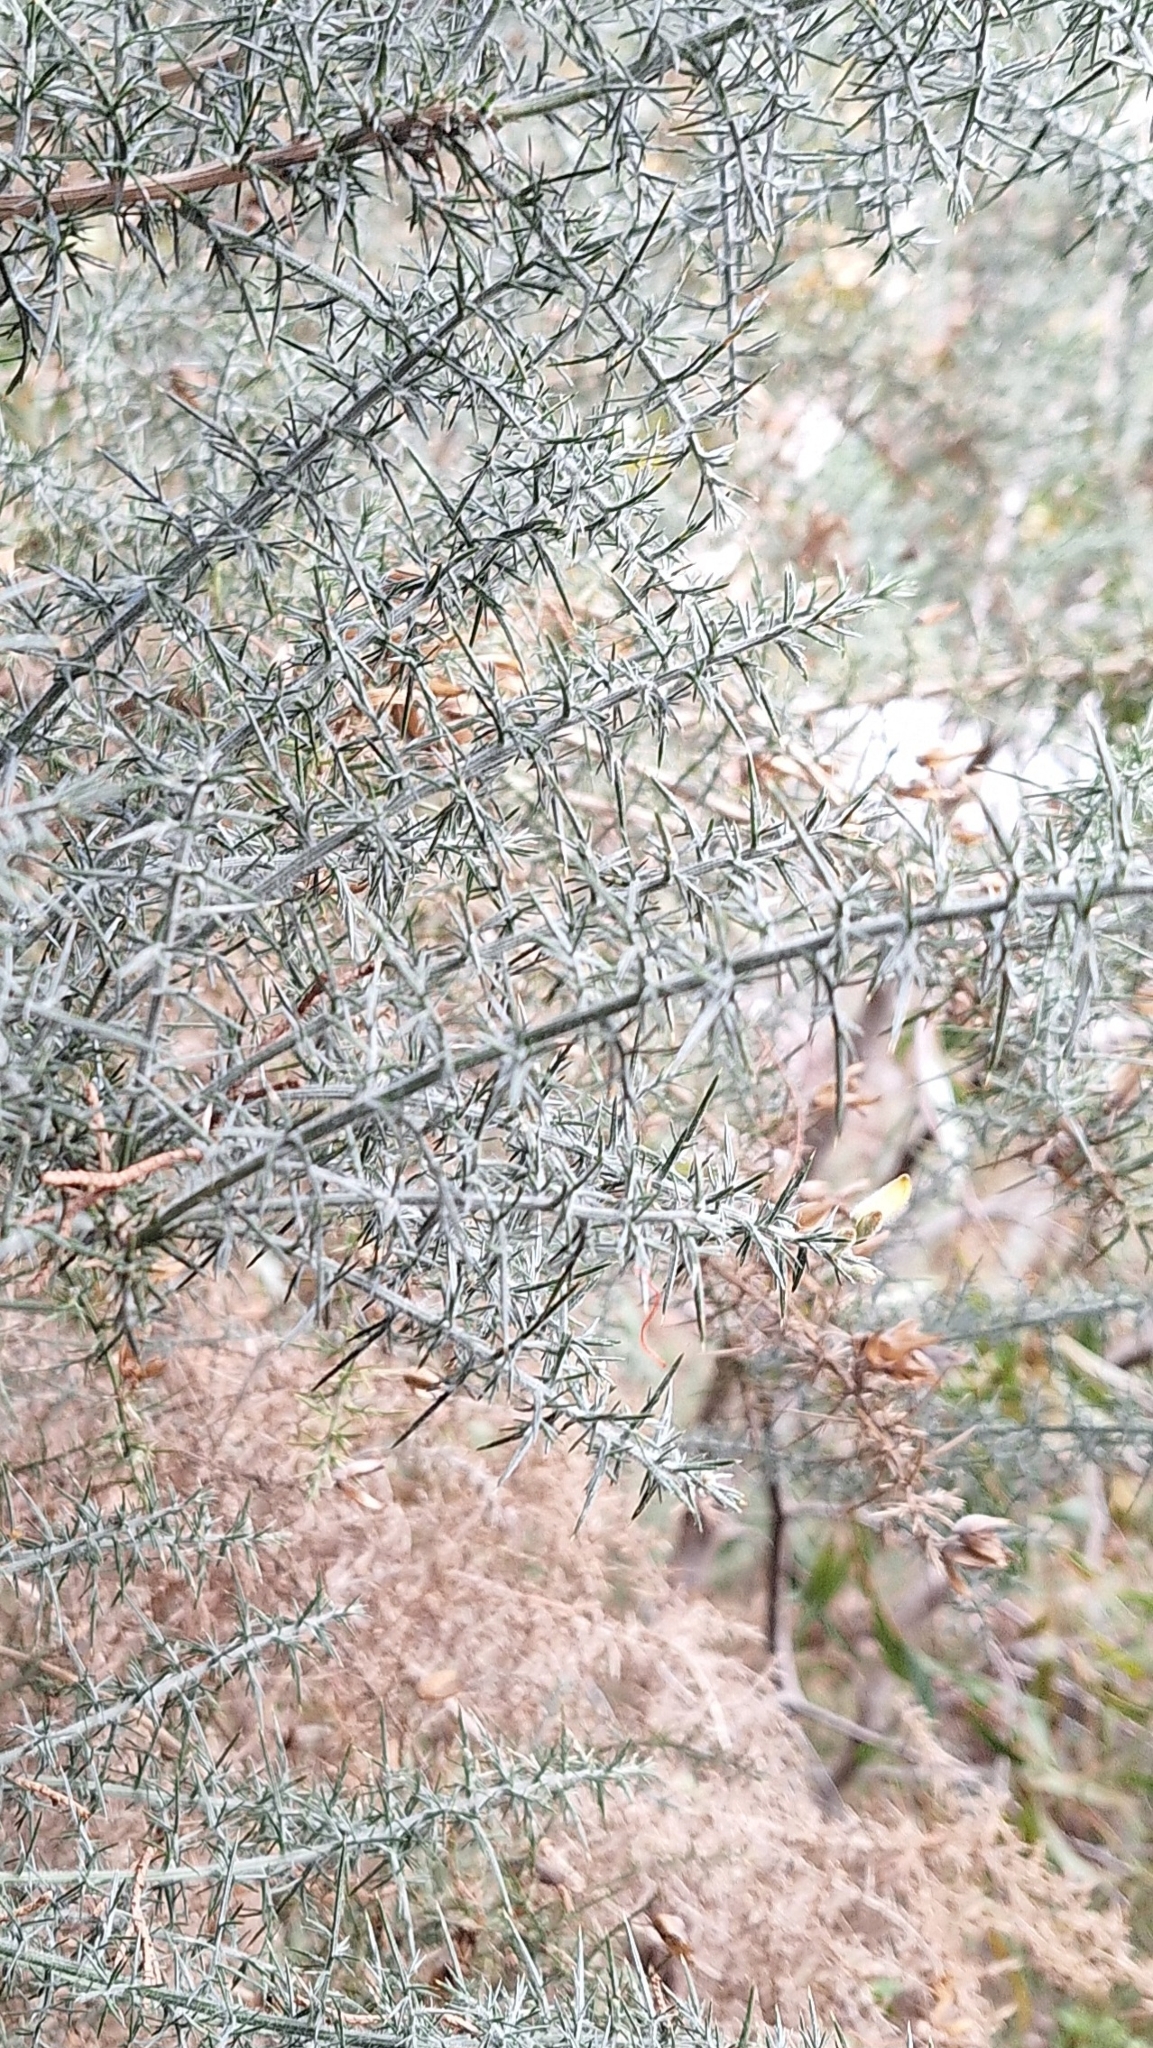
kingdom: Plantae
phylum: Tracheophyta
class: Magnoliopsida
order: Fabales
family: Fabaceae
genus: Ulex
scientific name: Ulex europaeus
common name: Common gorse
